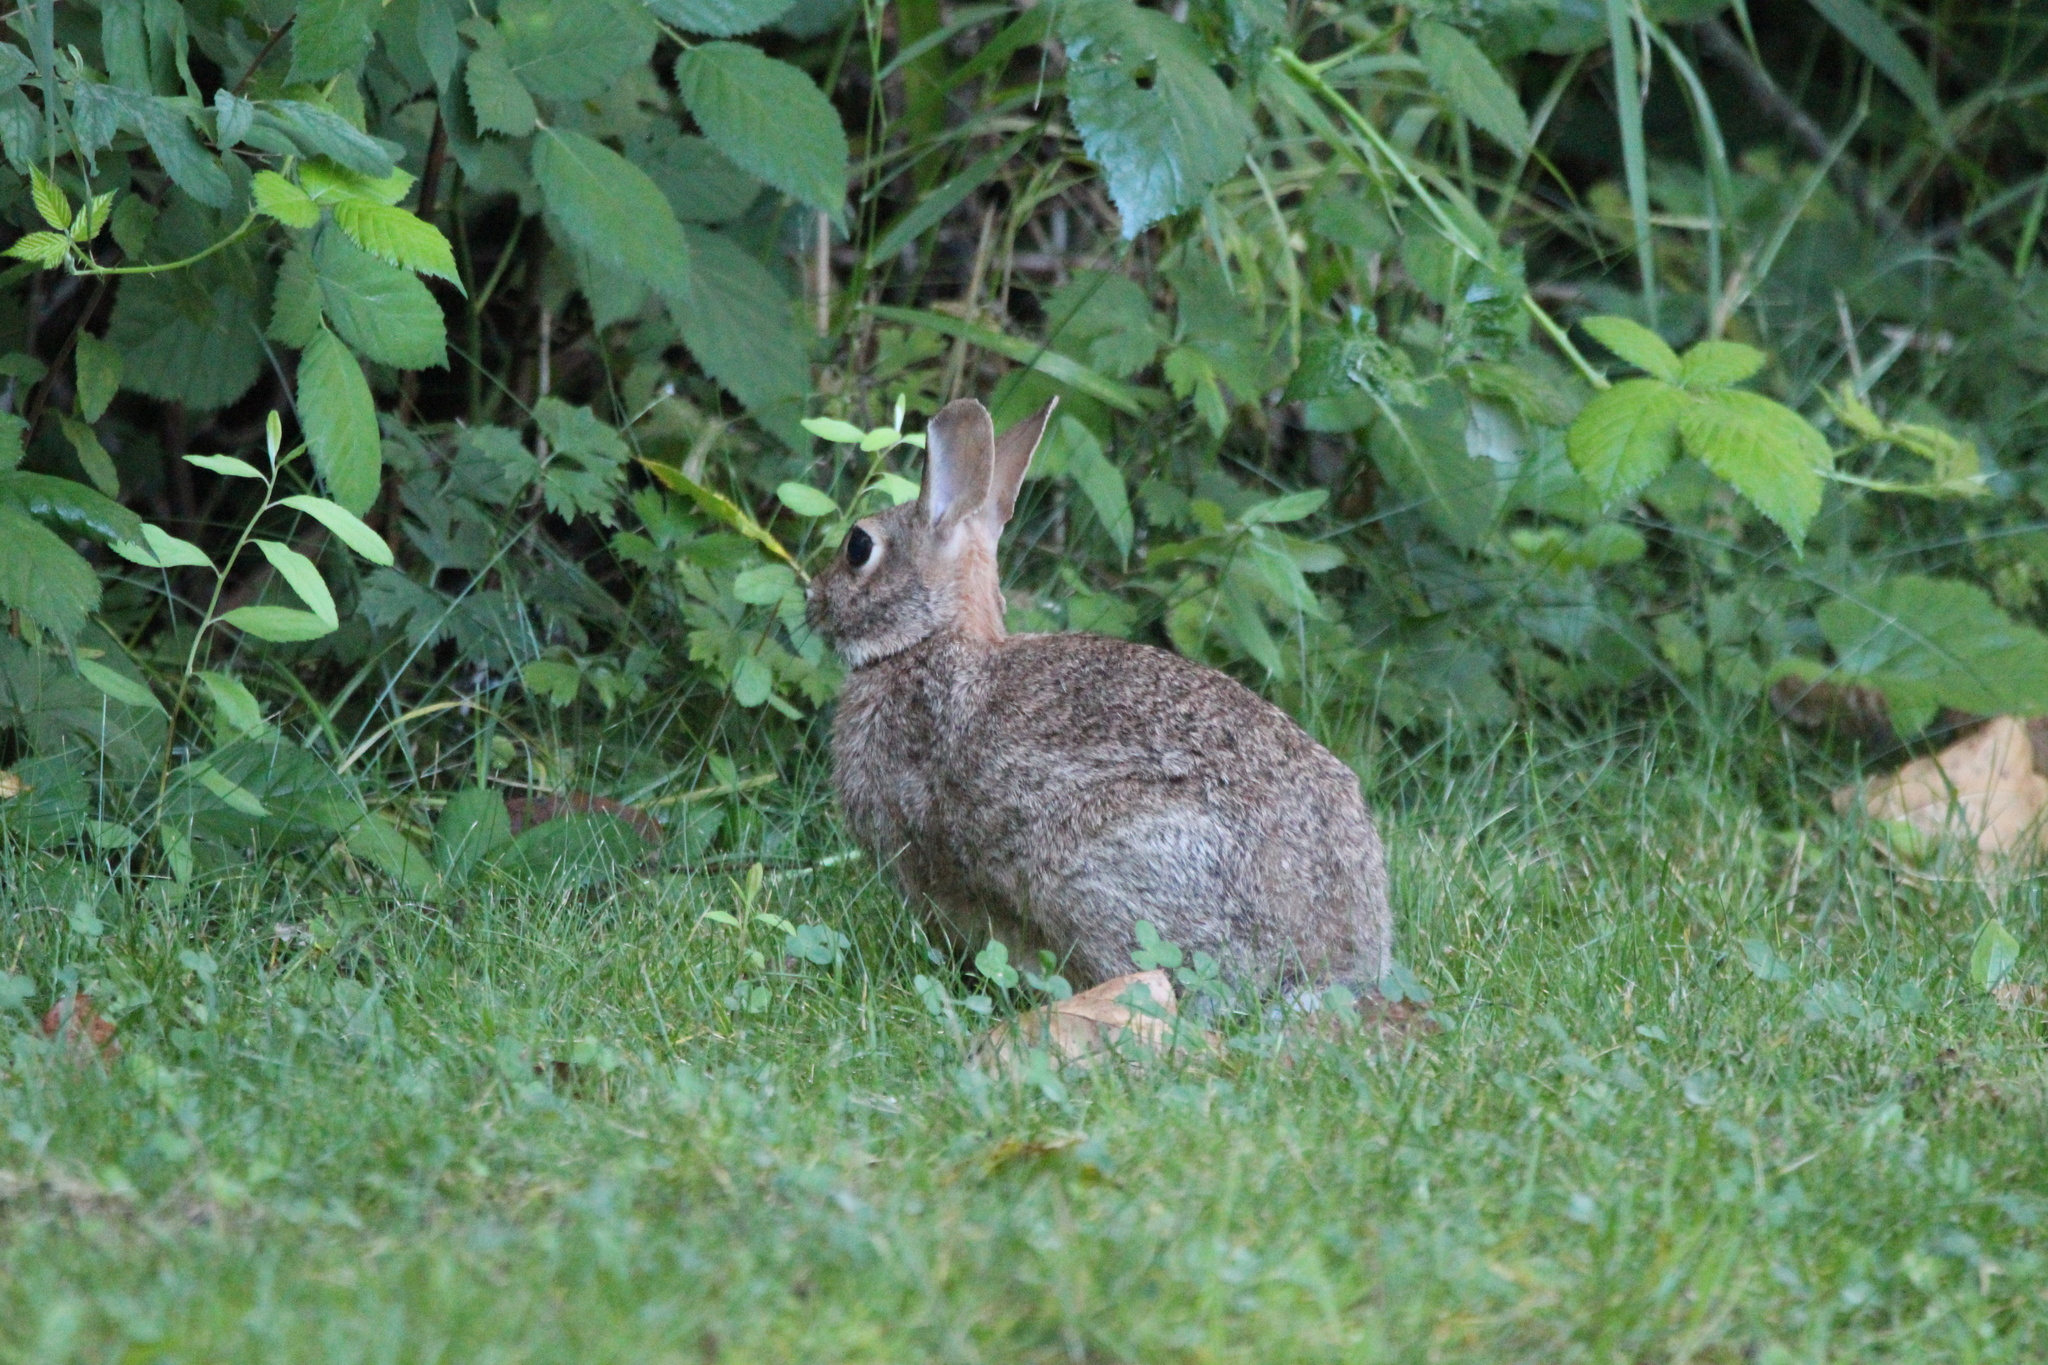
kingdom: Animalia
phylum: Chordata
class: Mammalia
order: Lagomorpha
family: Leporidae
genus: Sylvilagus
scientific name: Sylvilagus floridanus
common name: Eastern cottontail
